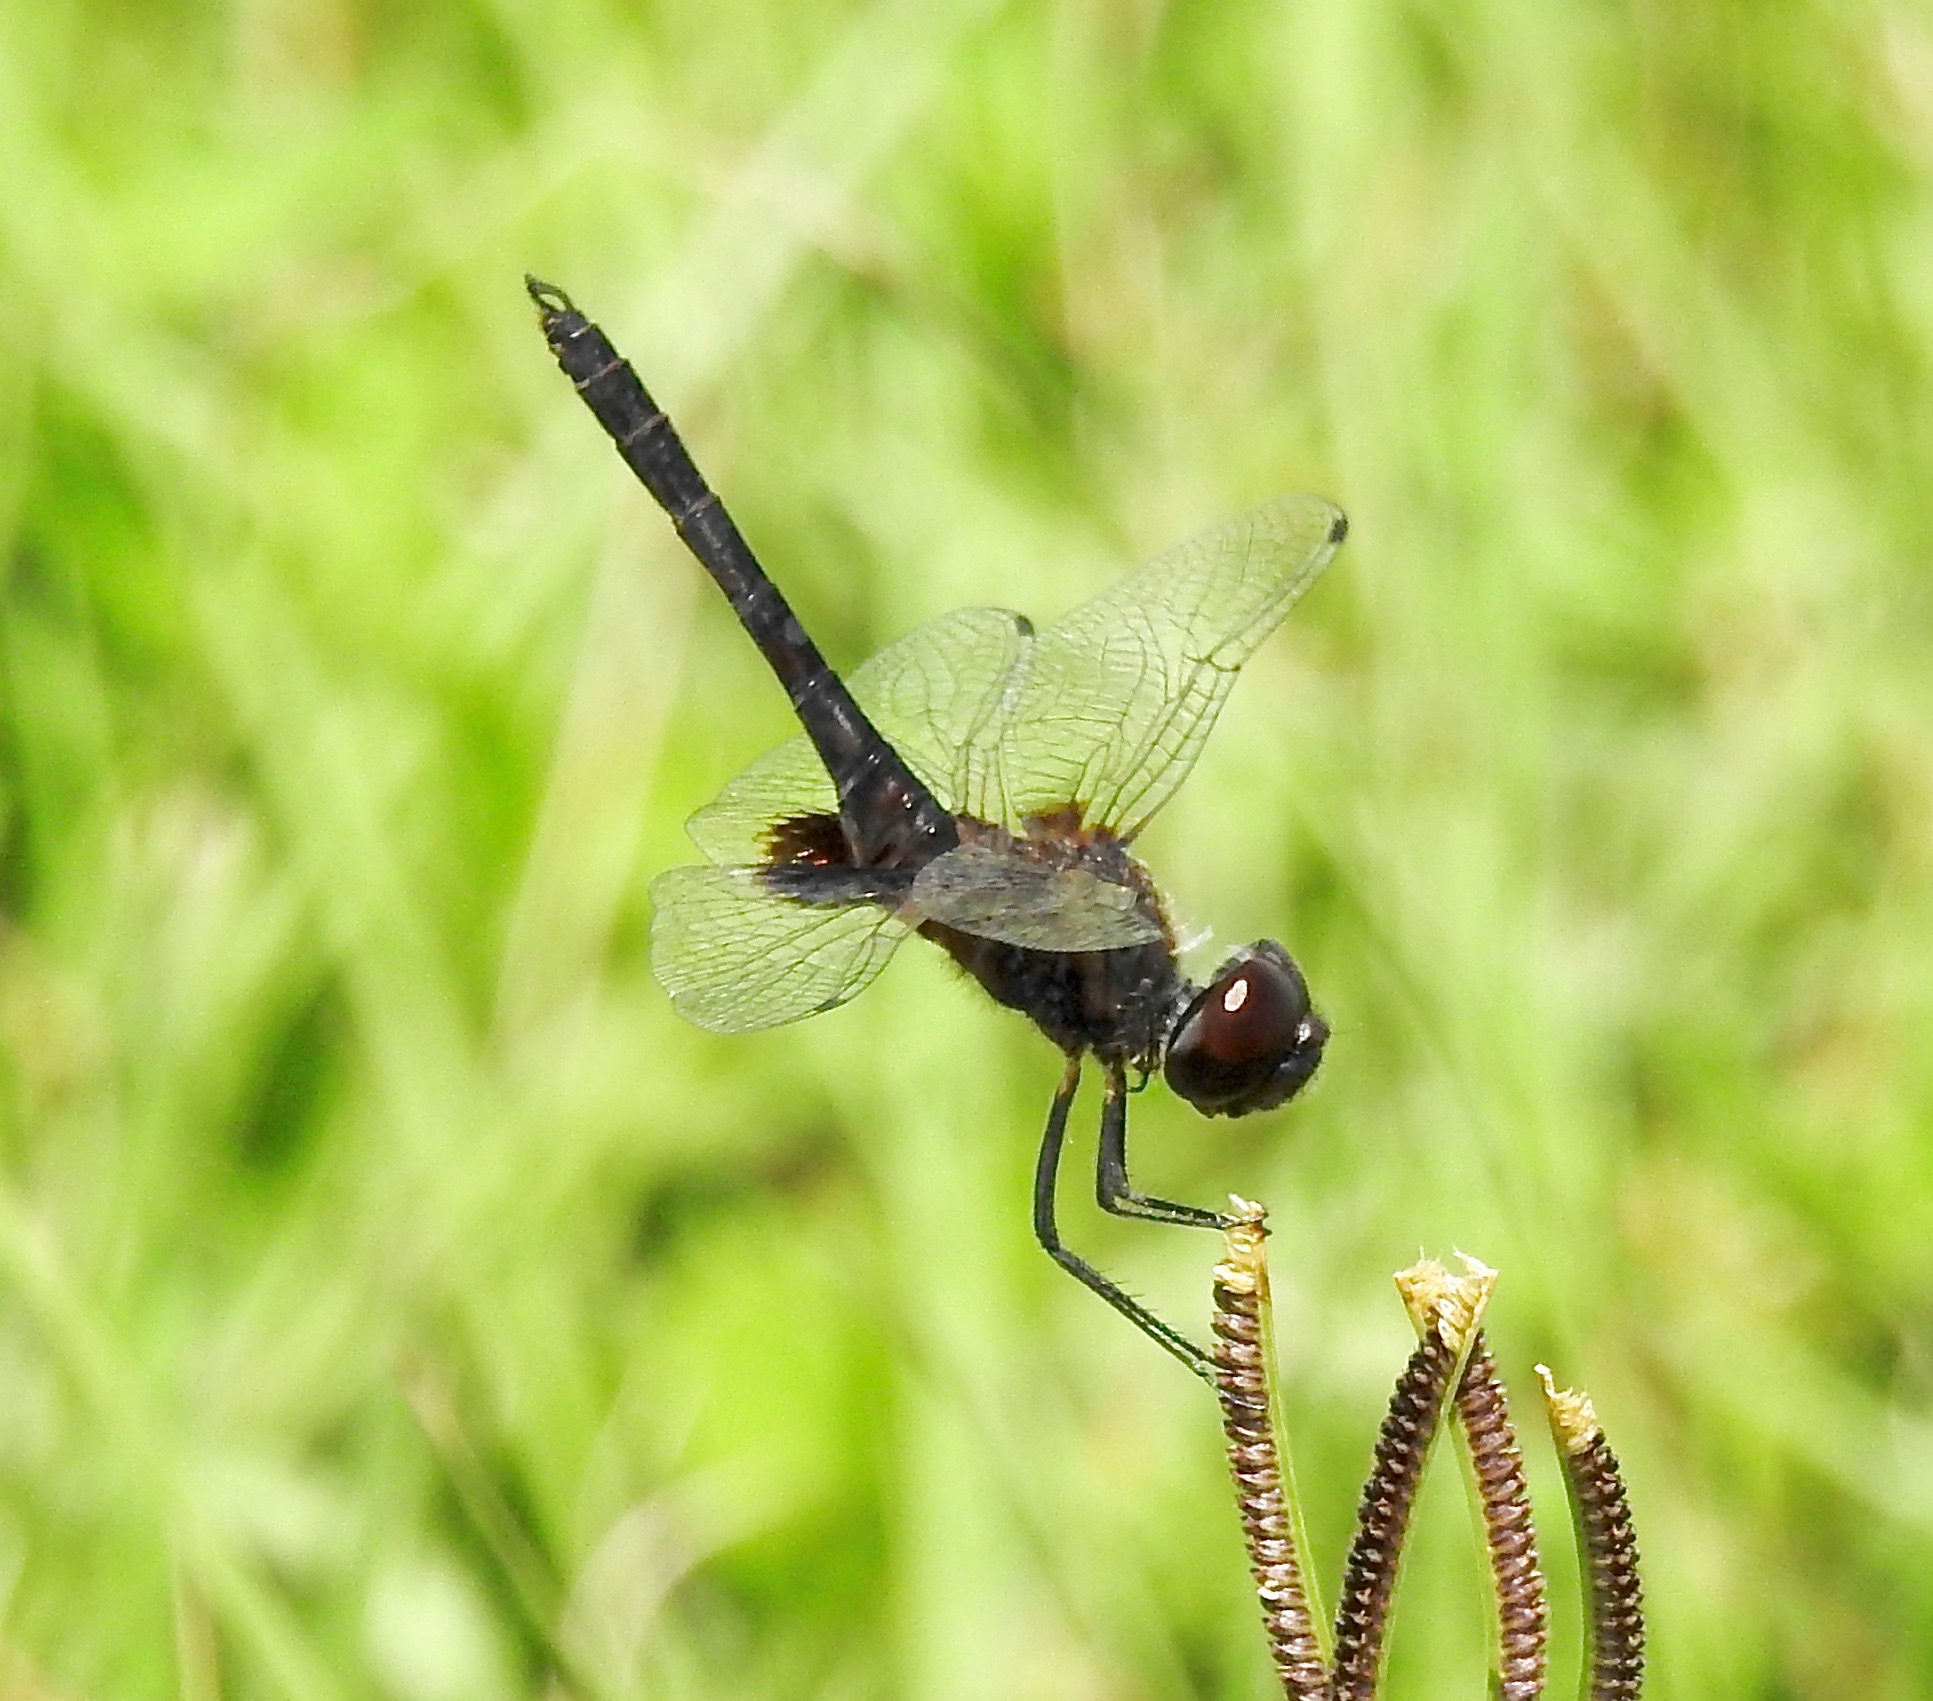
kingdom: Animalia
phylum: Arthropoda
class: Insecta
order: Odonata
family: Libellulidae
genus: Macrodiplax
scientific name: Macrodiplax balteata
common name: Marl pennant
